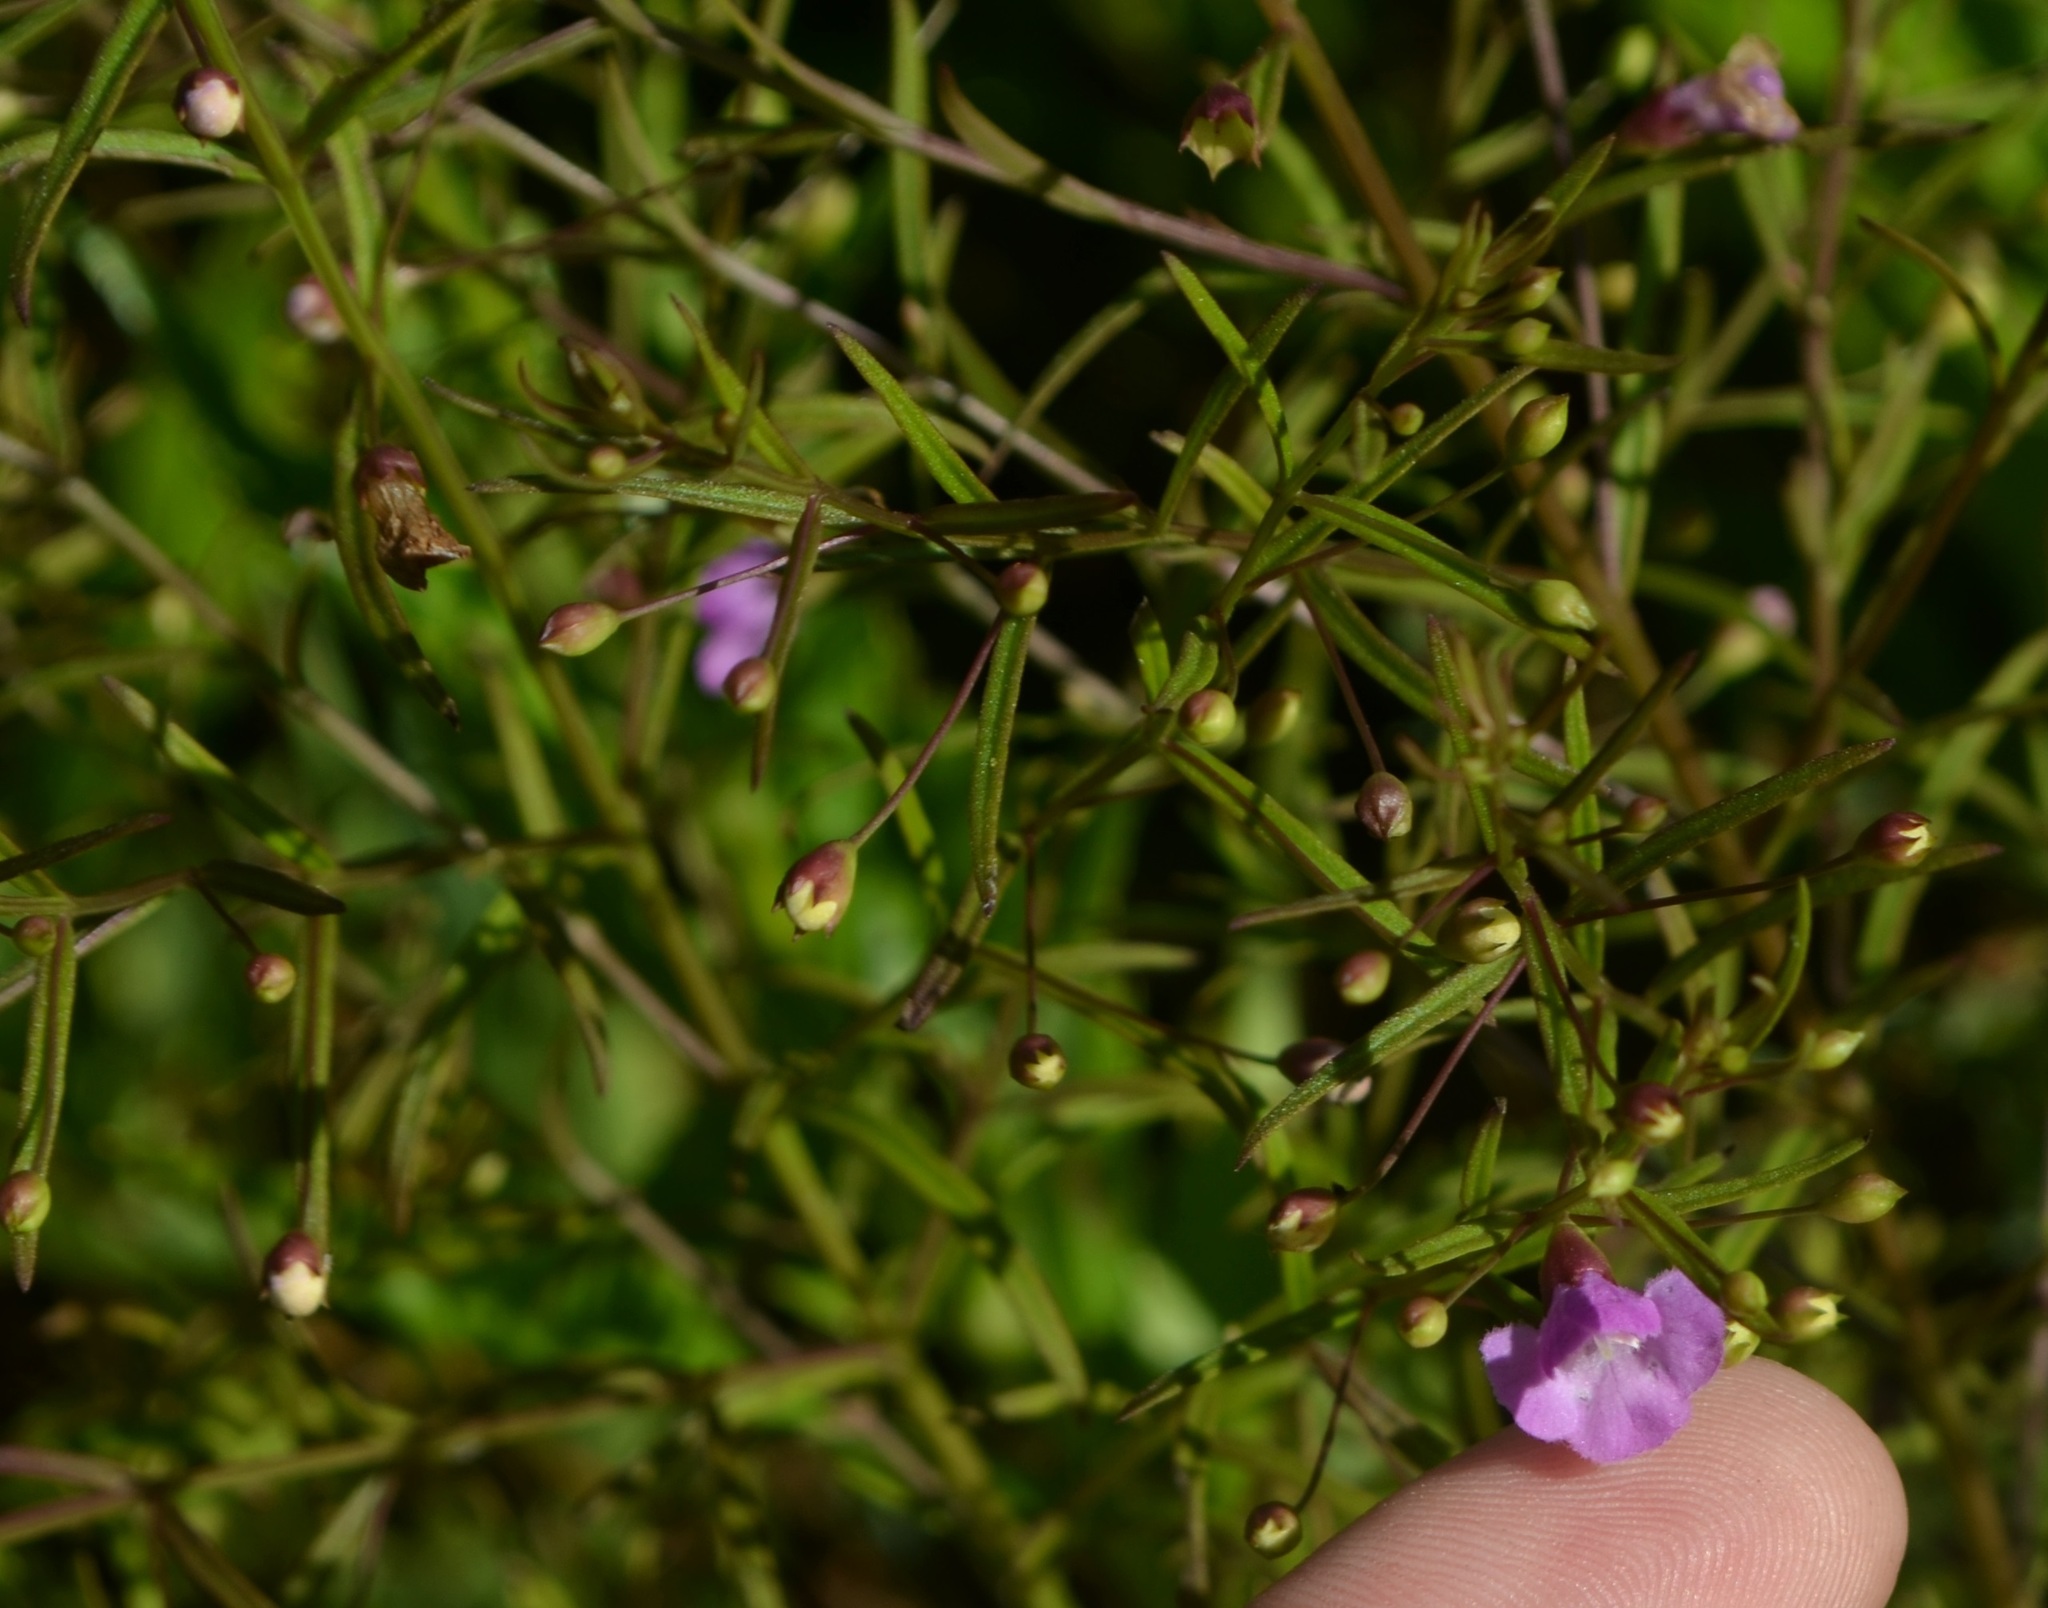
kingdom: Plantae
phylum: Tracheophyta
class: Magnoliopsida
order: Lamiales
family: Orobanchaceae
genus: Agalinis
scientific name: Agalinis tenuifolia
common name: Slender agalinis
